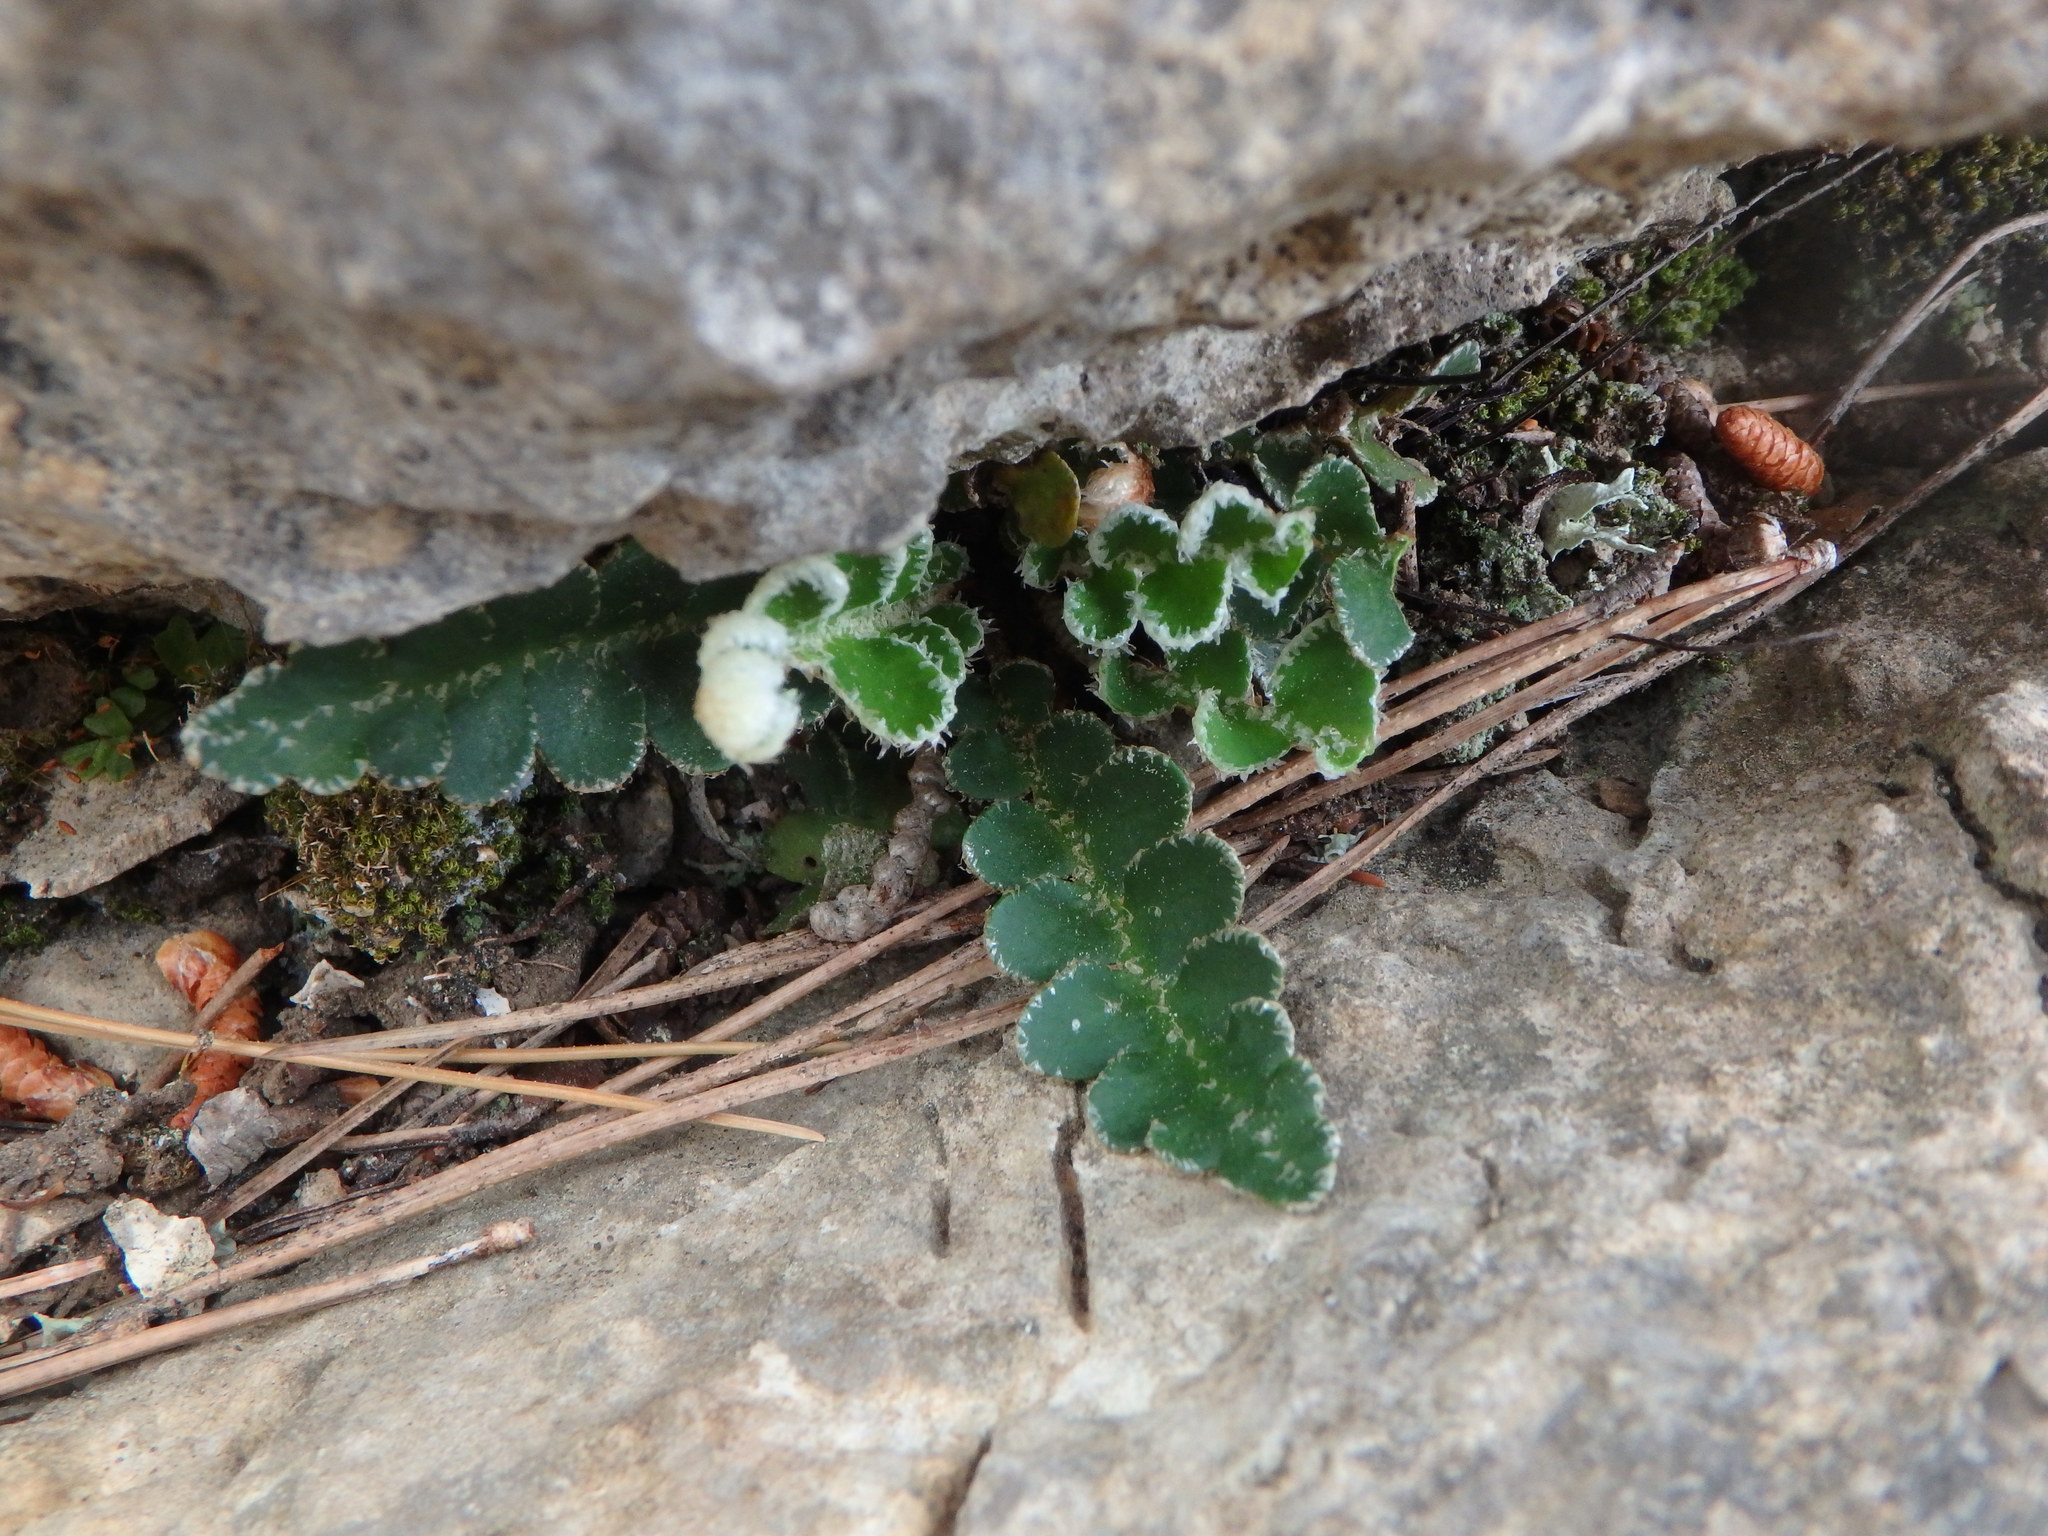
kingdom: Plantae
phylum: Tracheophyta
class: Polypodiopsida
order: Polypodiales
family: Aspleniaceae
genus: Asplenium
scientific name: Asplenium ceterach
